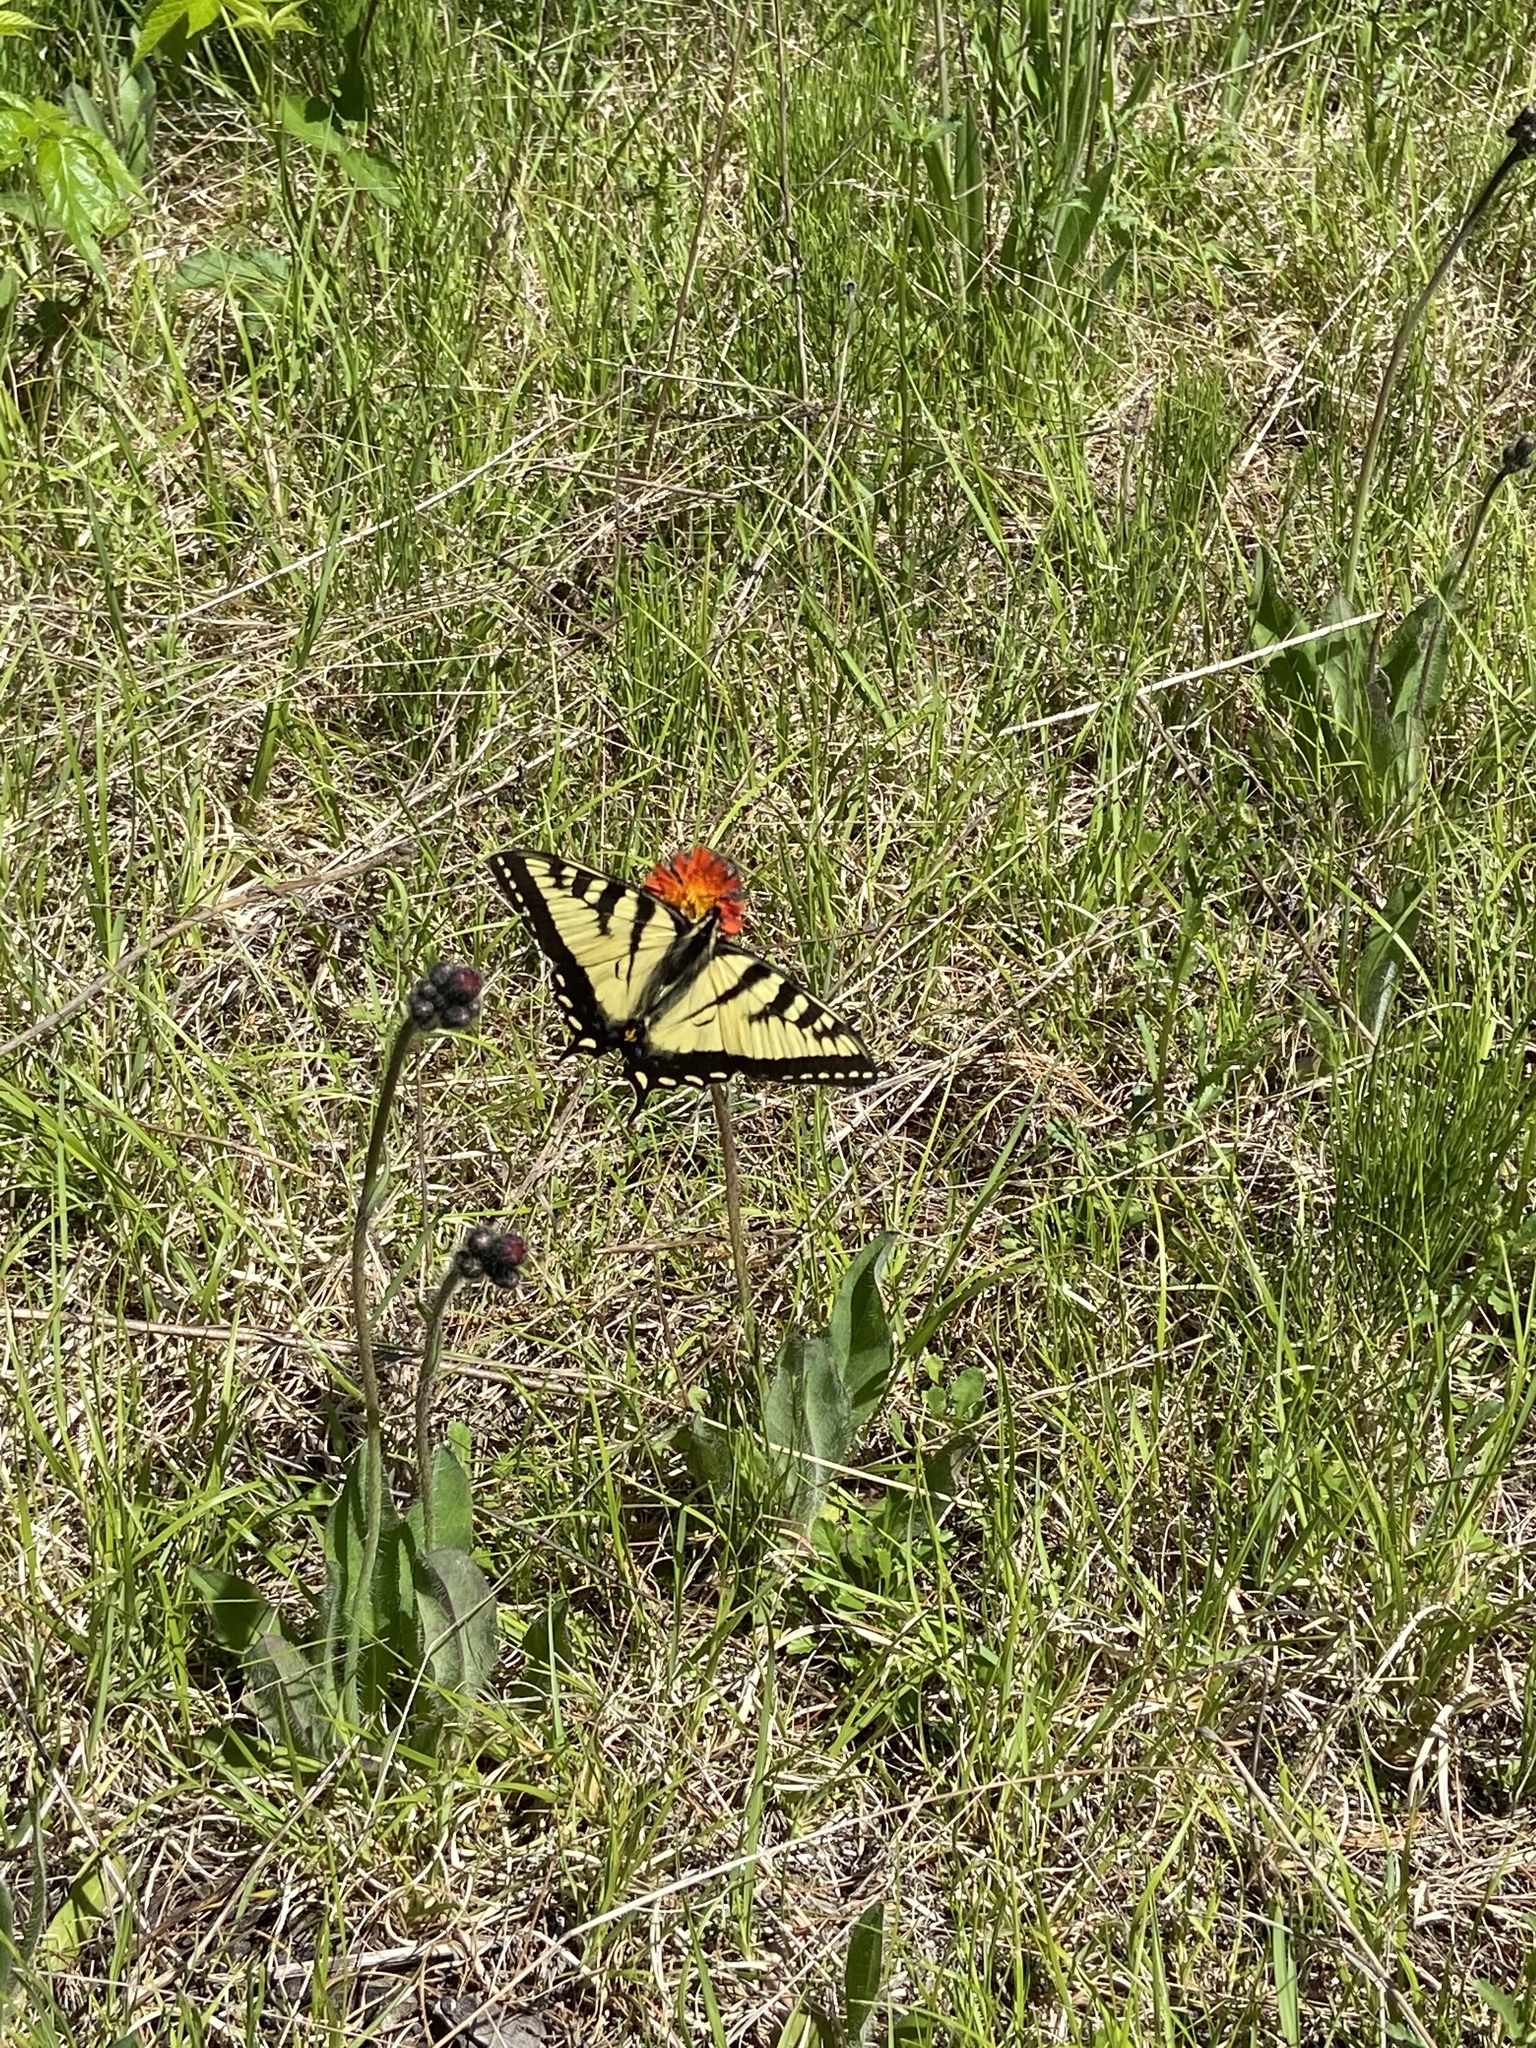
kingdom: Animalia
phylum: Arthropoda
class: Insecta
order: Lepidoptera
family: Papilionidae
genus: Papilio
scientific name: Papilio canadensis
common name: Canadian tiger swallowtail
